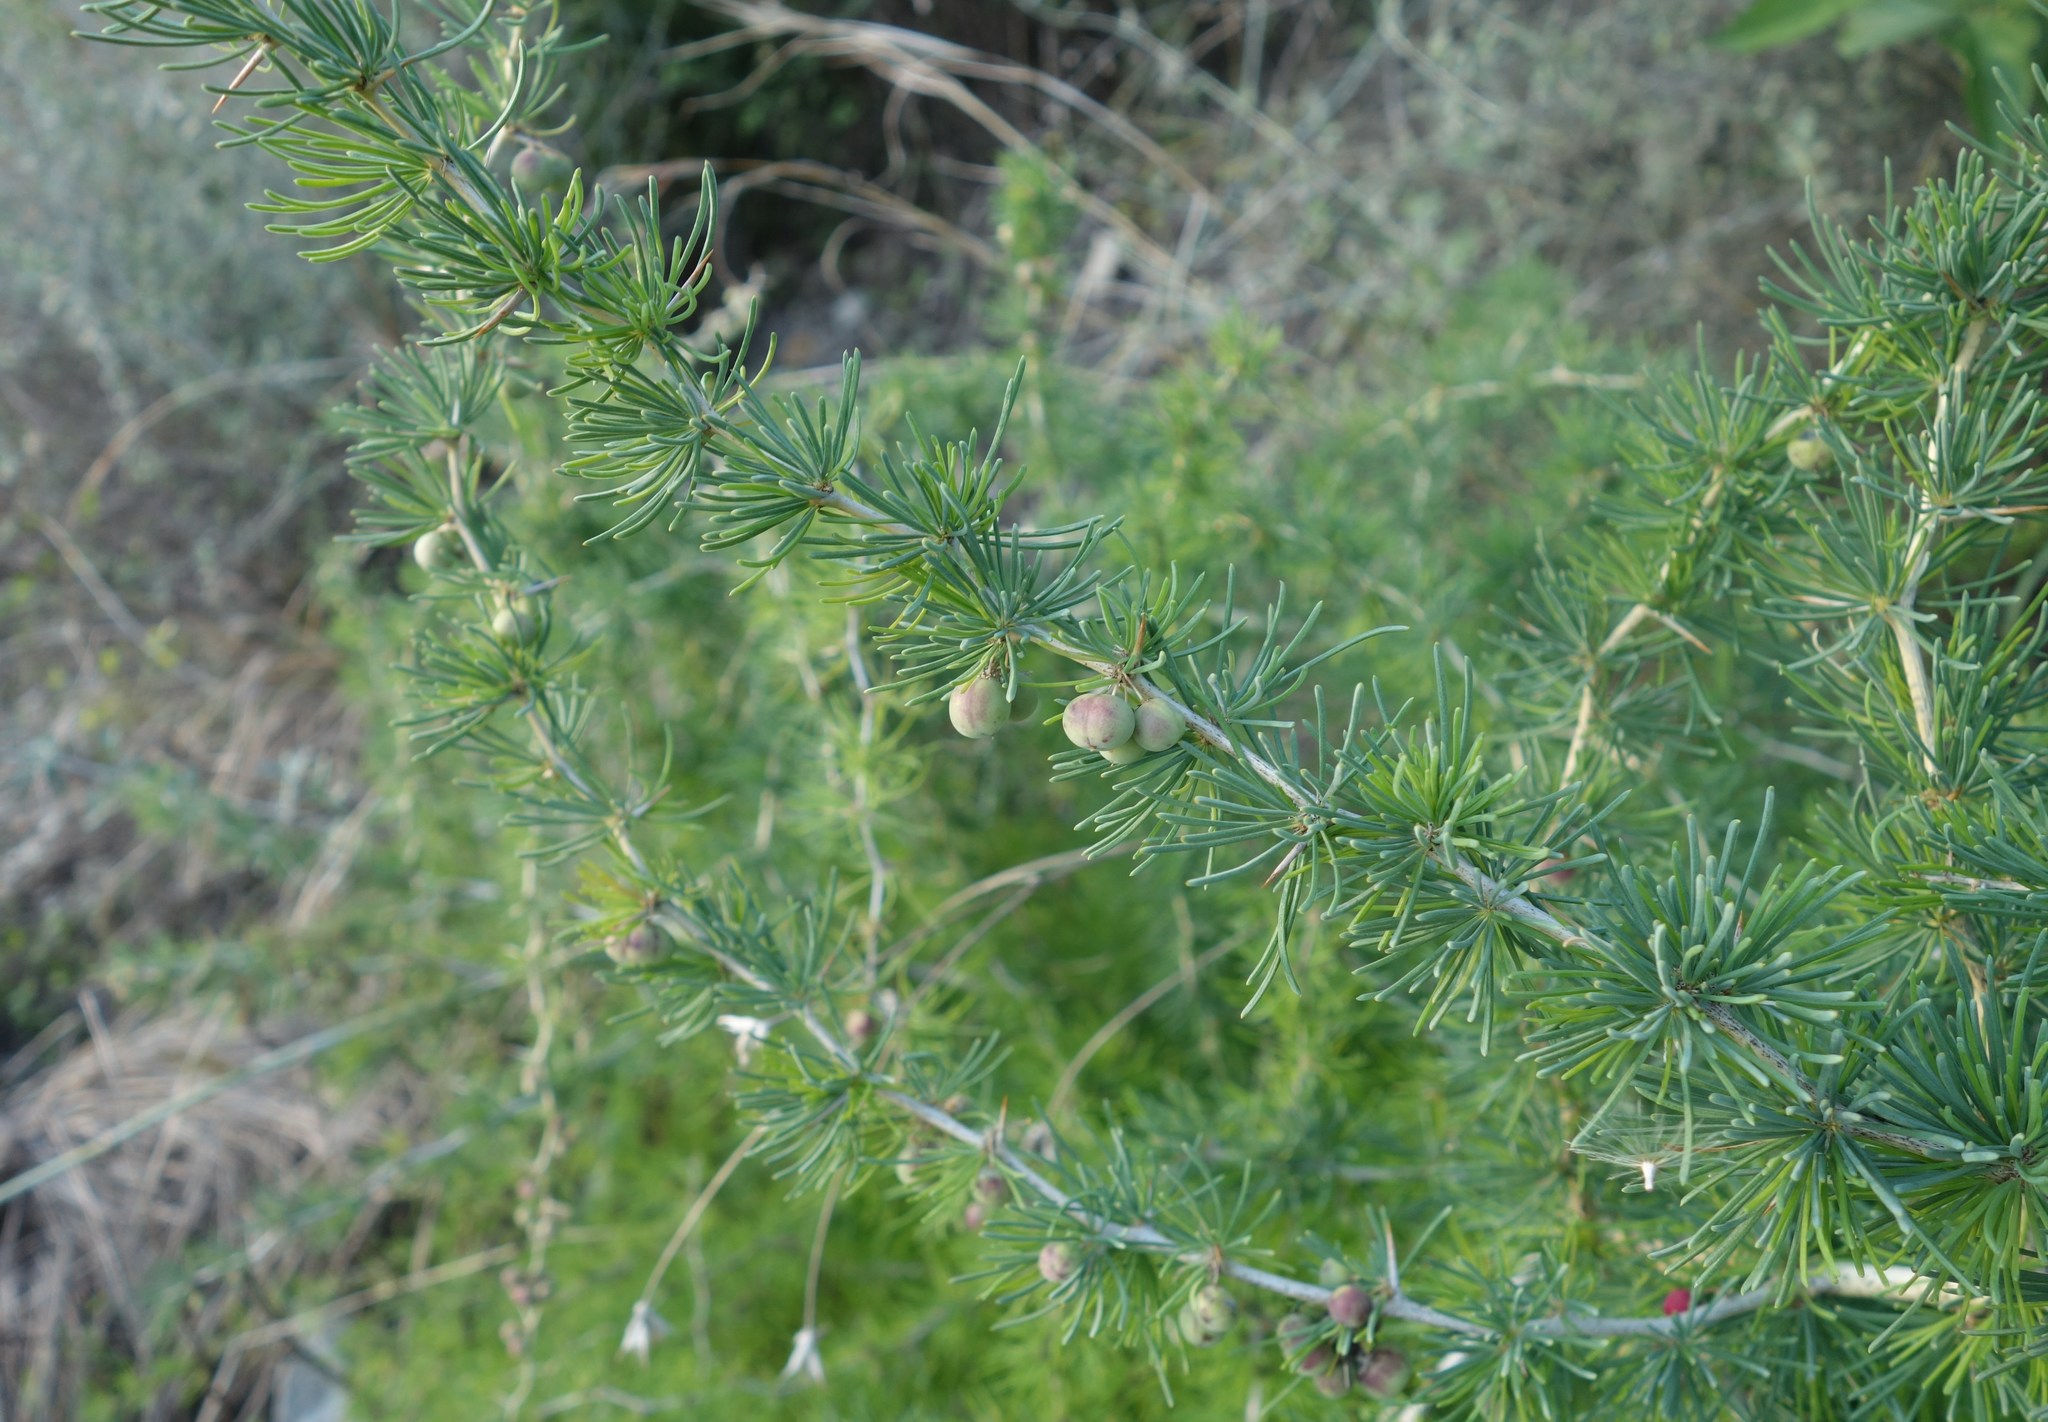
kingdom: Plantae
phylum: Tracheophyta
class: Liliopsida
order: Asparagales
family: Asparagaceae
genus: Asparagus
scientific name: Asparagus albus
